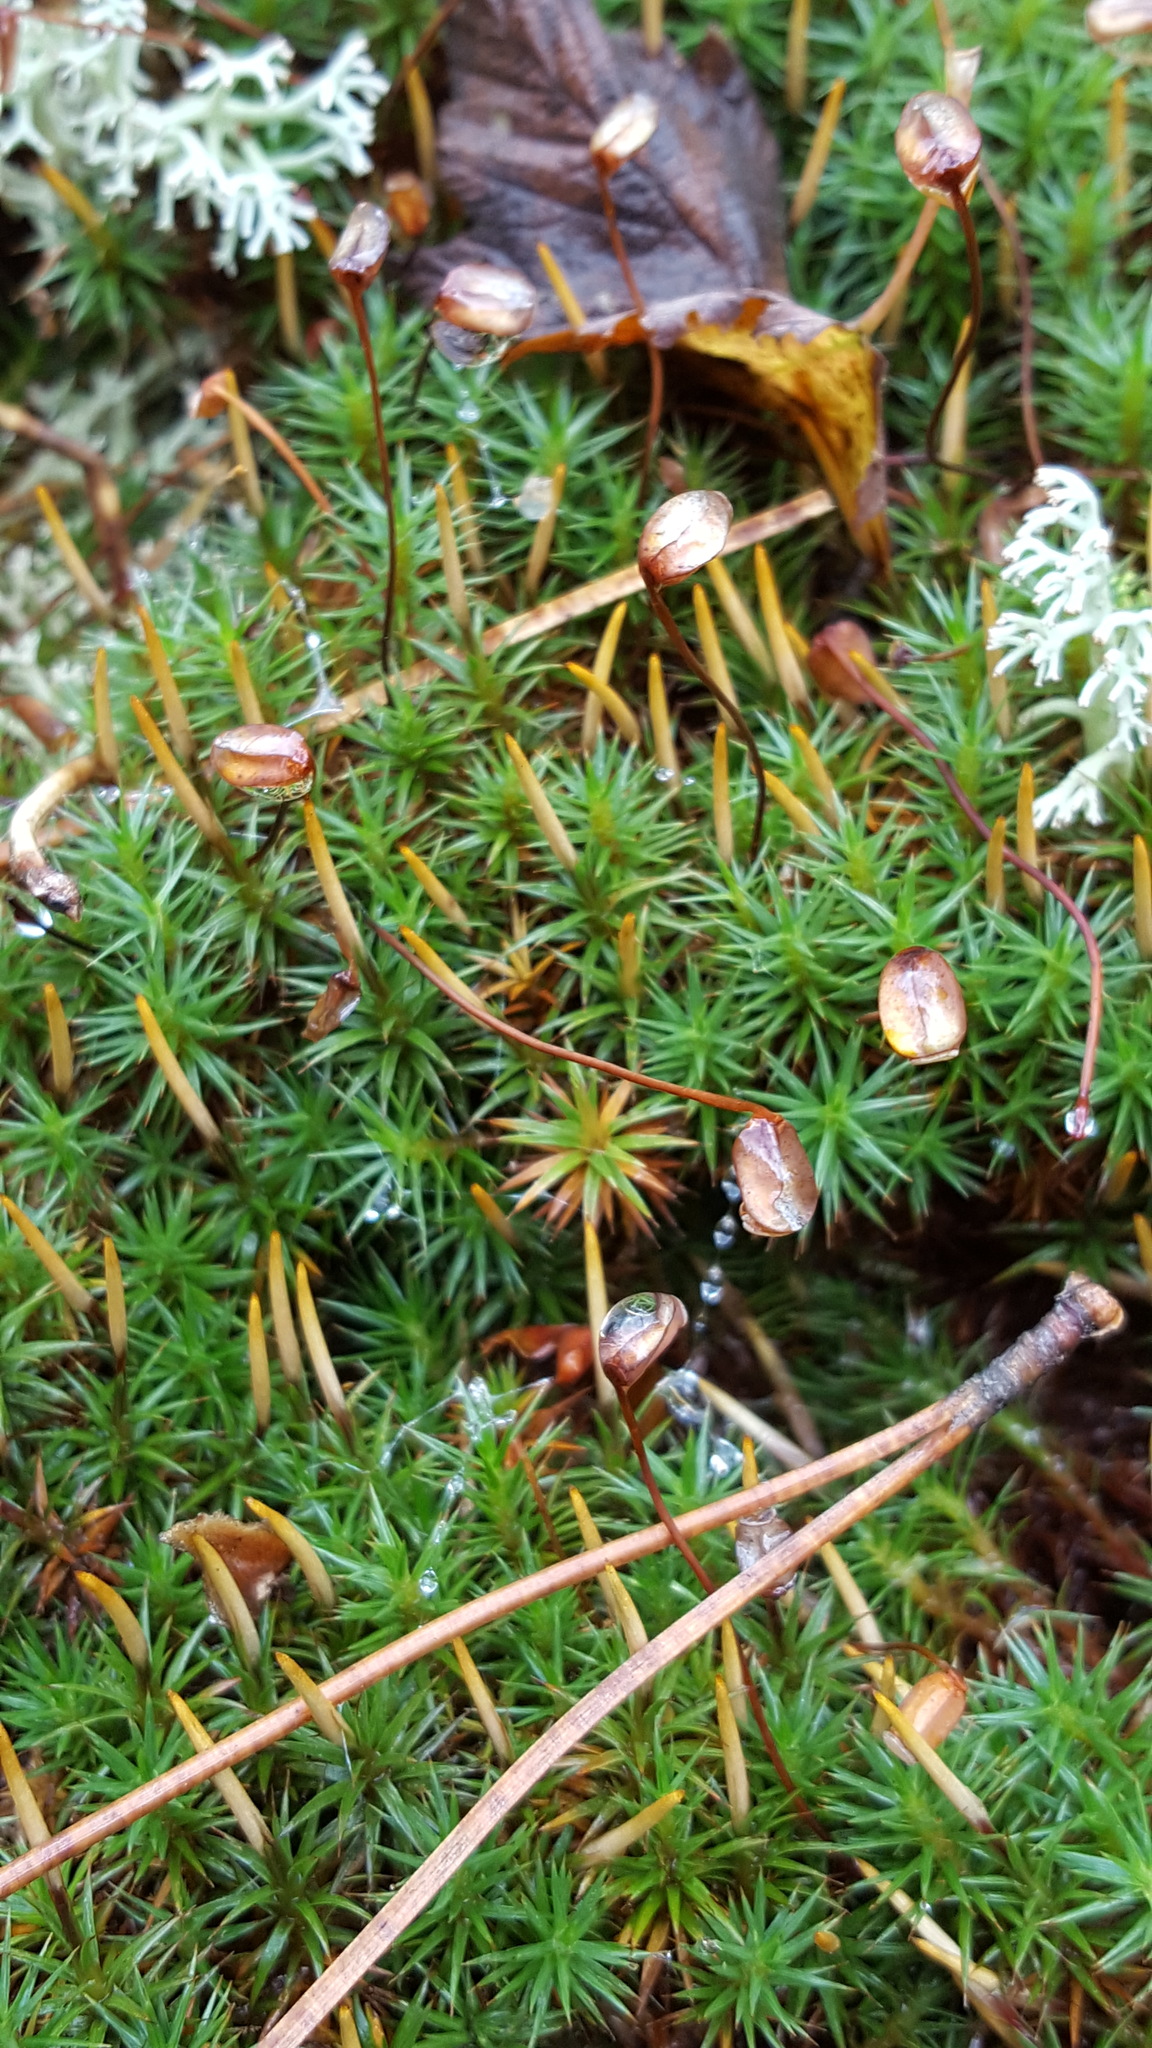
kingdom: Plantae
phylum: Bryophyta
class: Polytrichopsida
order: Polytrichales
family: Polytrichaceae
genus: Polytrichum
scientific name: Polytrichum juniperinum
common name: Juniper haircap moss
